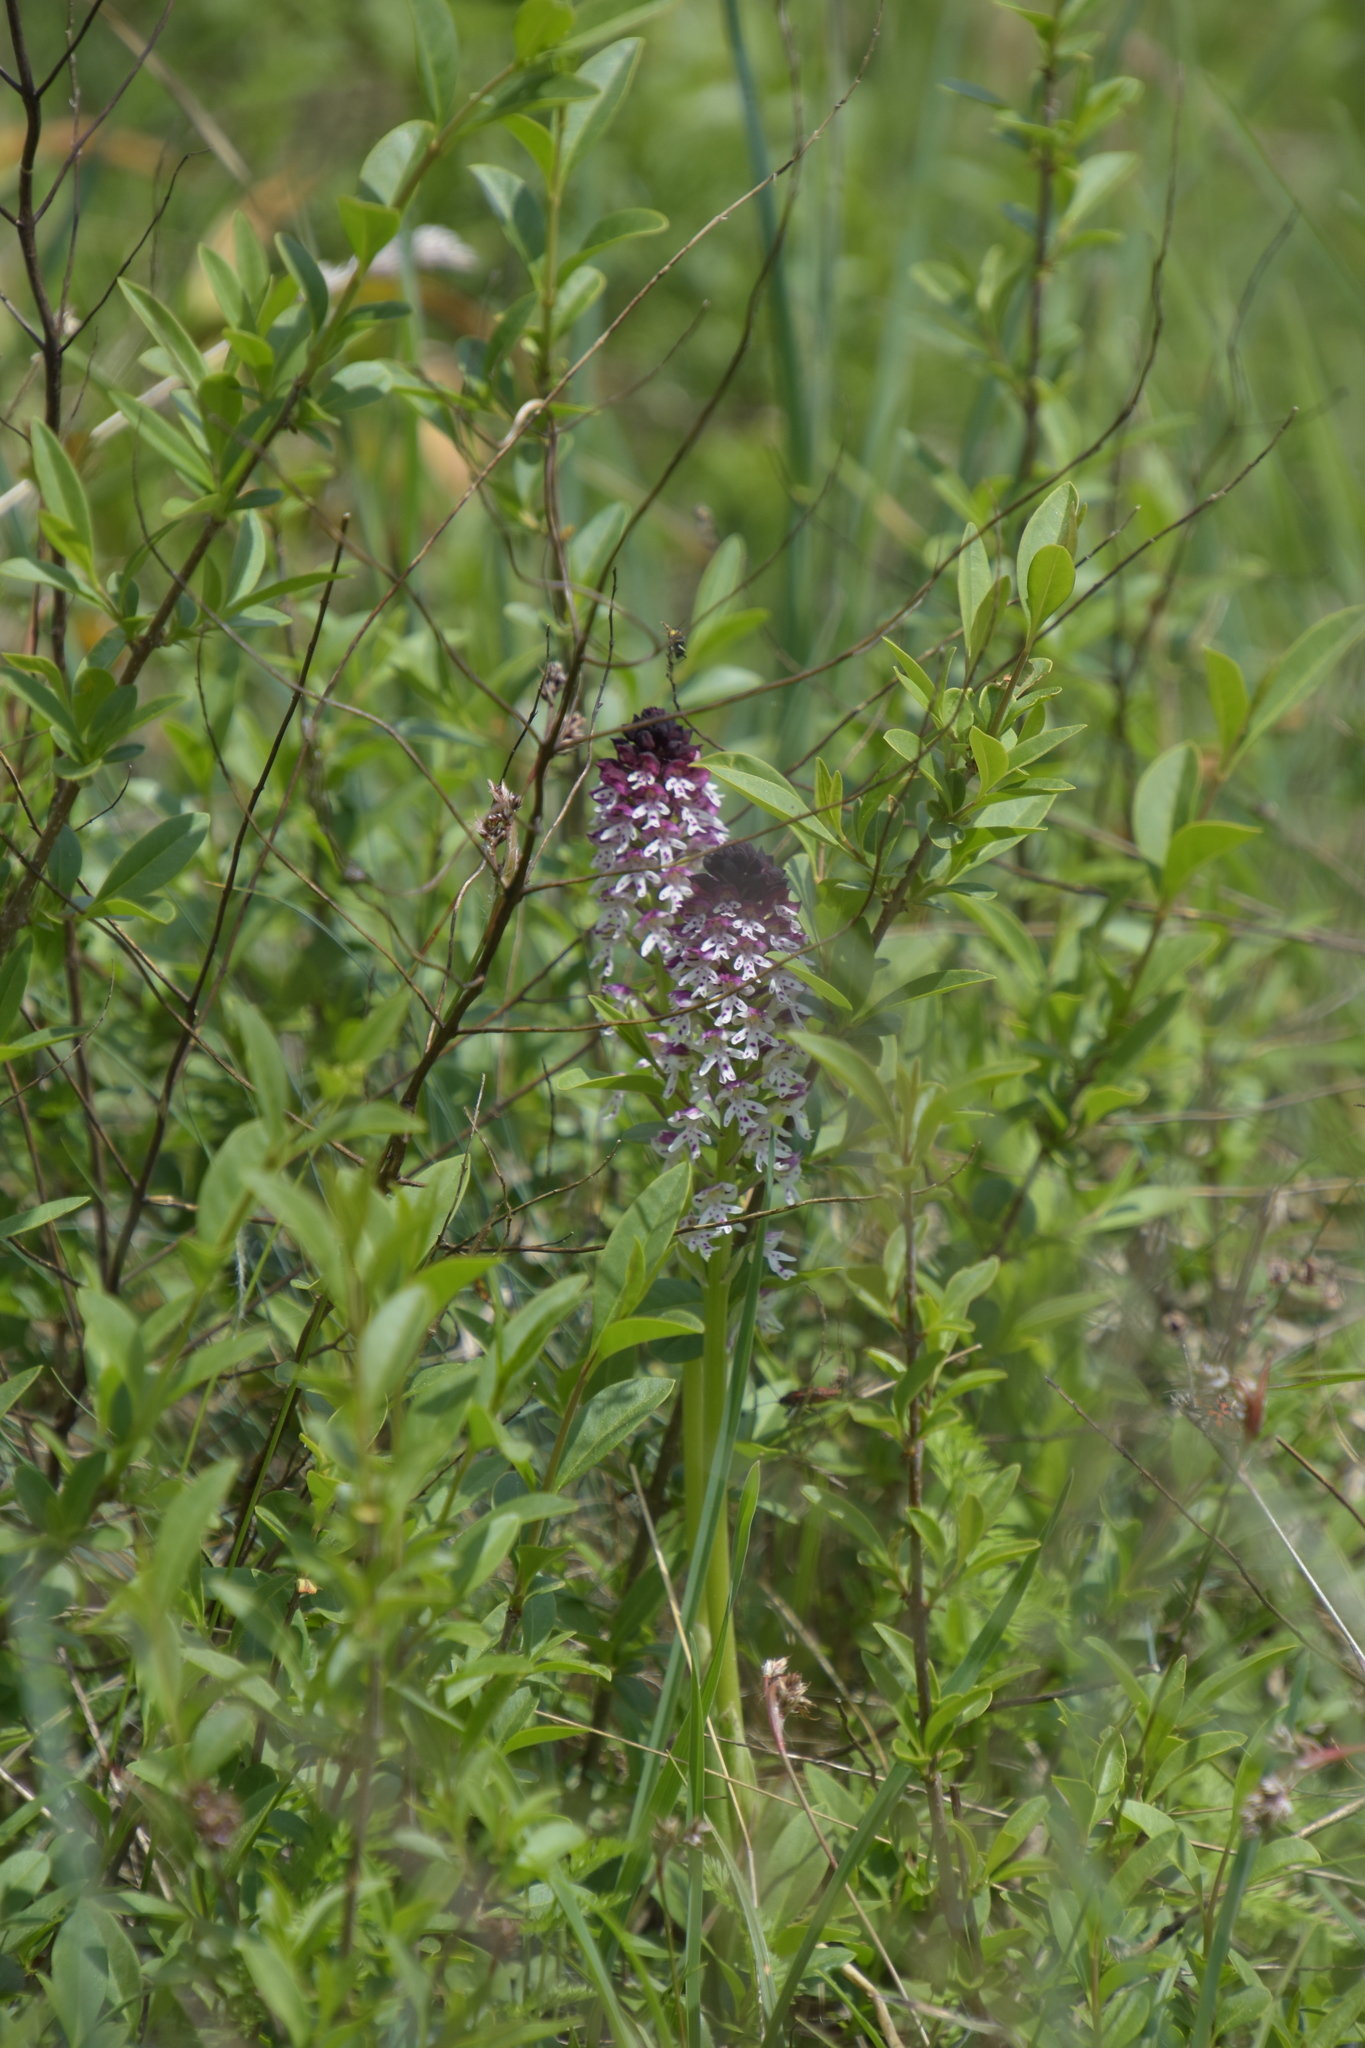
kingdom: Plantae
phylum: Tracheophyta
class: Liliopsida
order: Asparagales
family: Orchidaceae
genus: Neotinea
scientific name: Neotinea ustulata
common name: Burnt orchid
